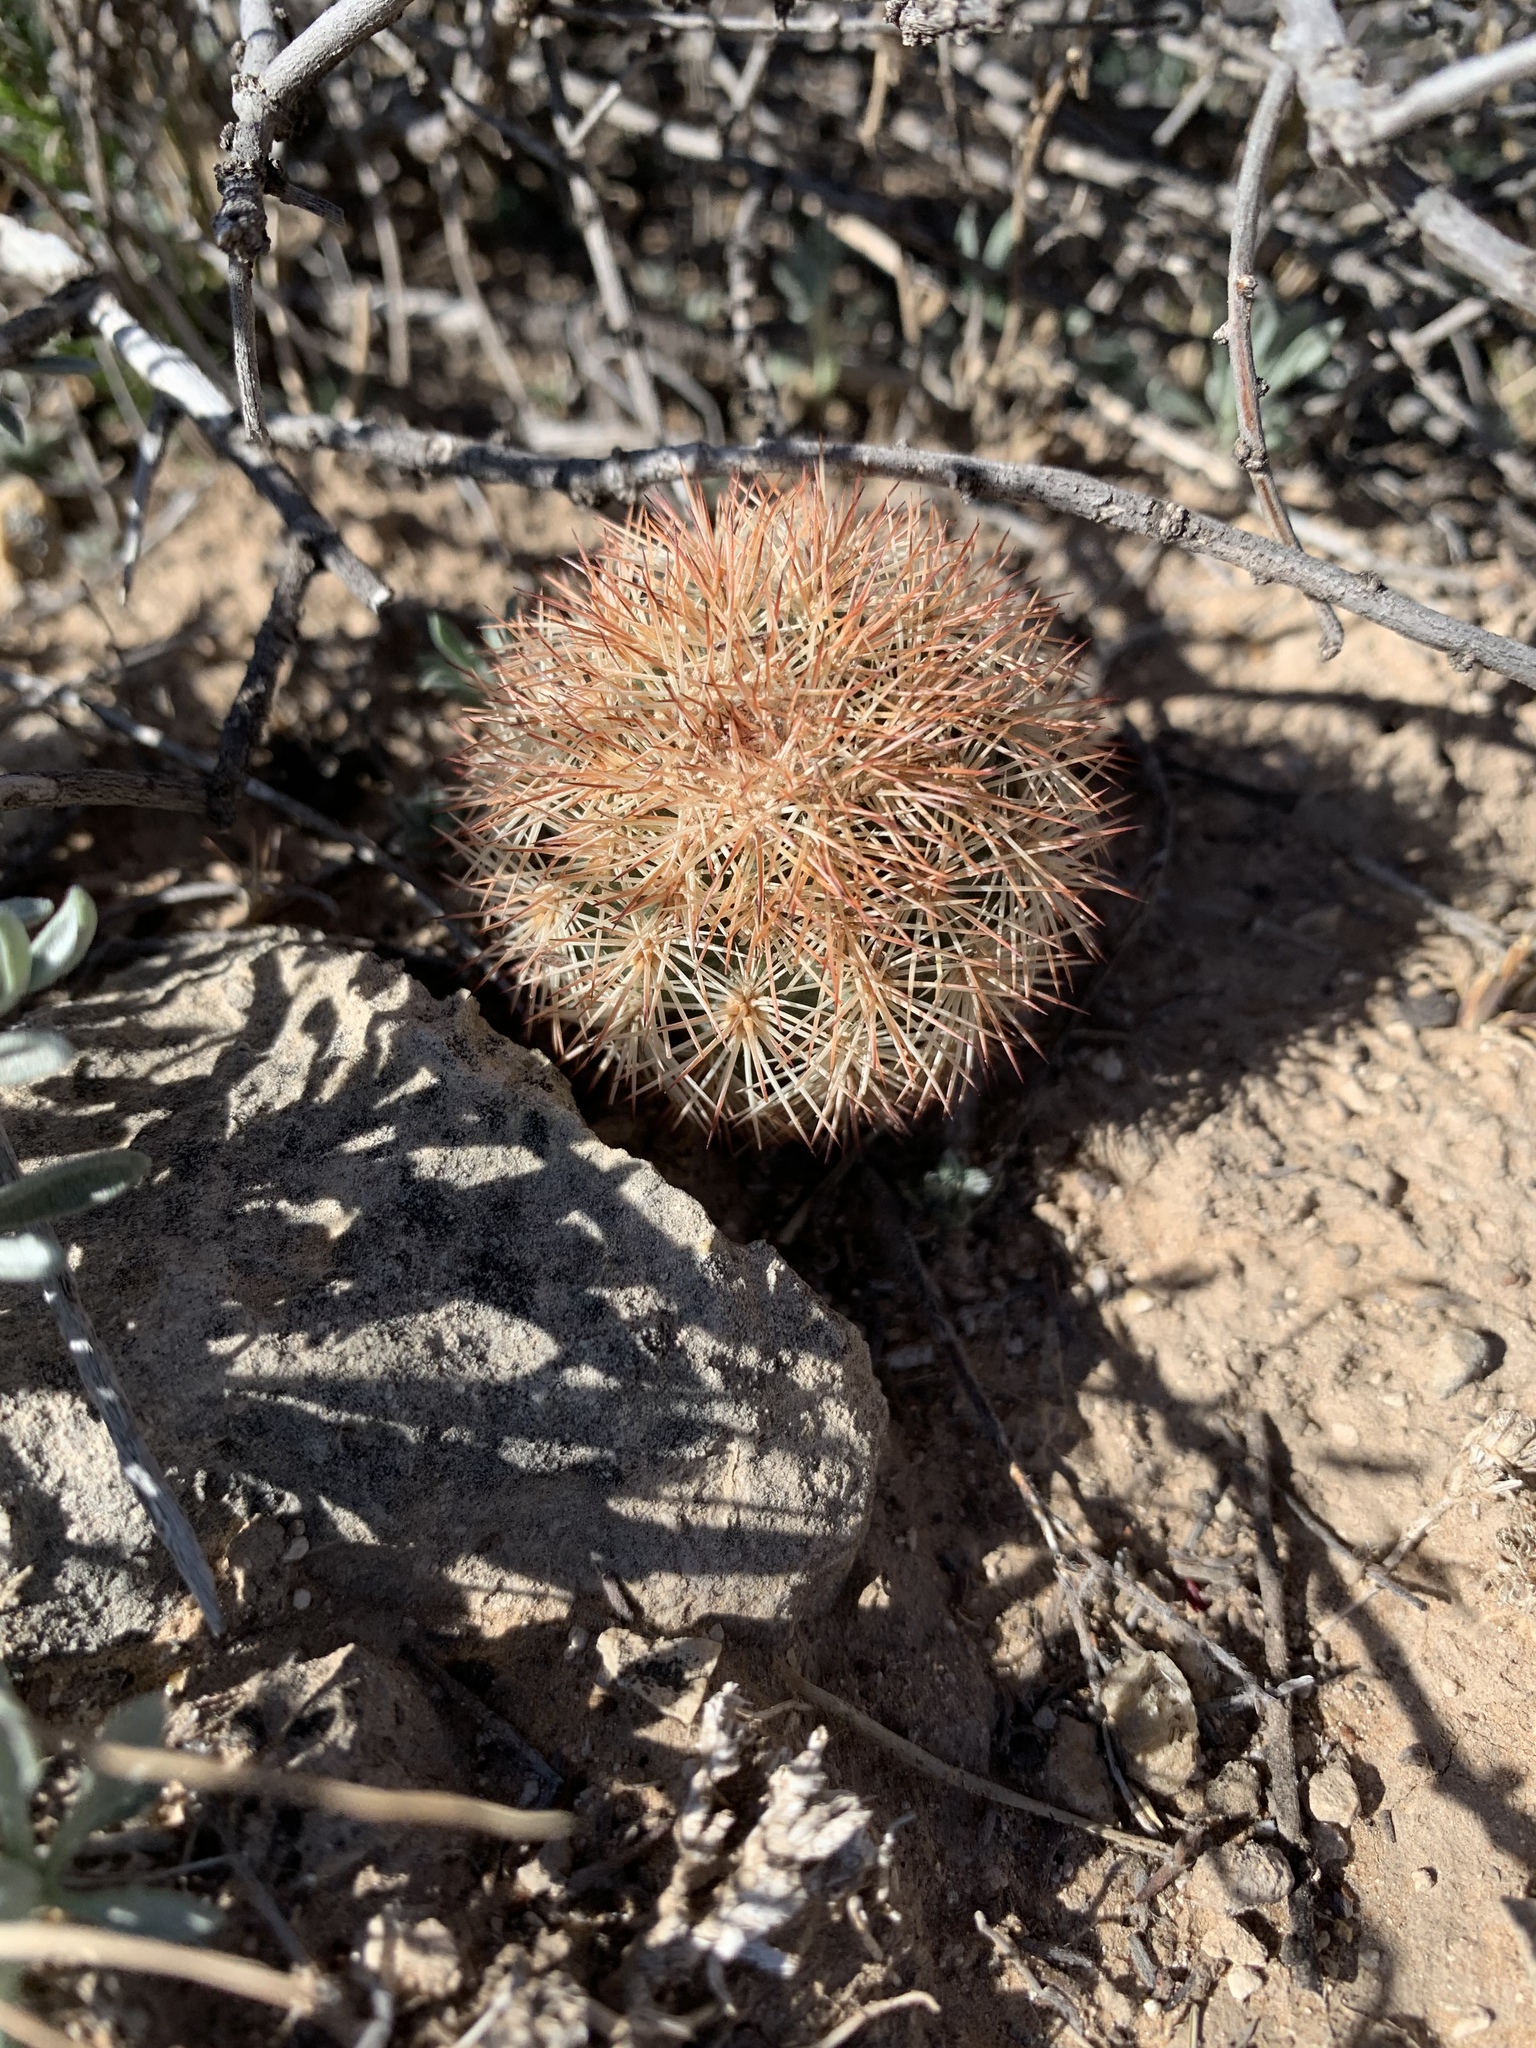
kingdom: Plantae
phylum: Tracheophyta
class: Magnoliopsida
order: Caryophyllales
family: Cactaceae
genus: Echinocereus
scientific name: Echinocereus dasyacanthus
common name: Spiny hedgehog cactus
